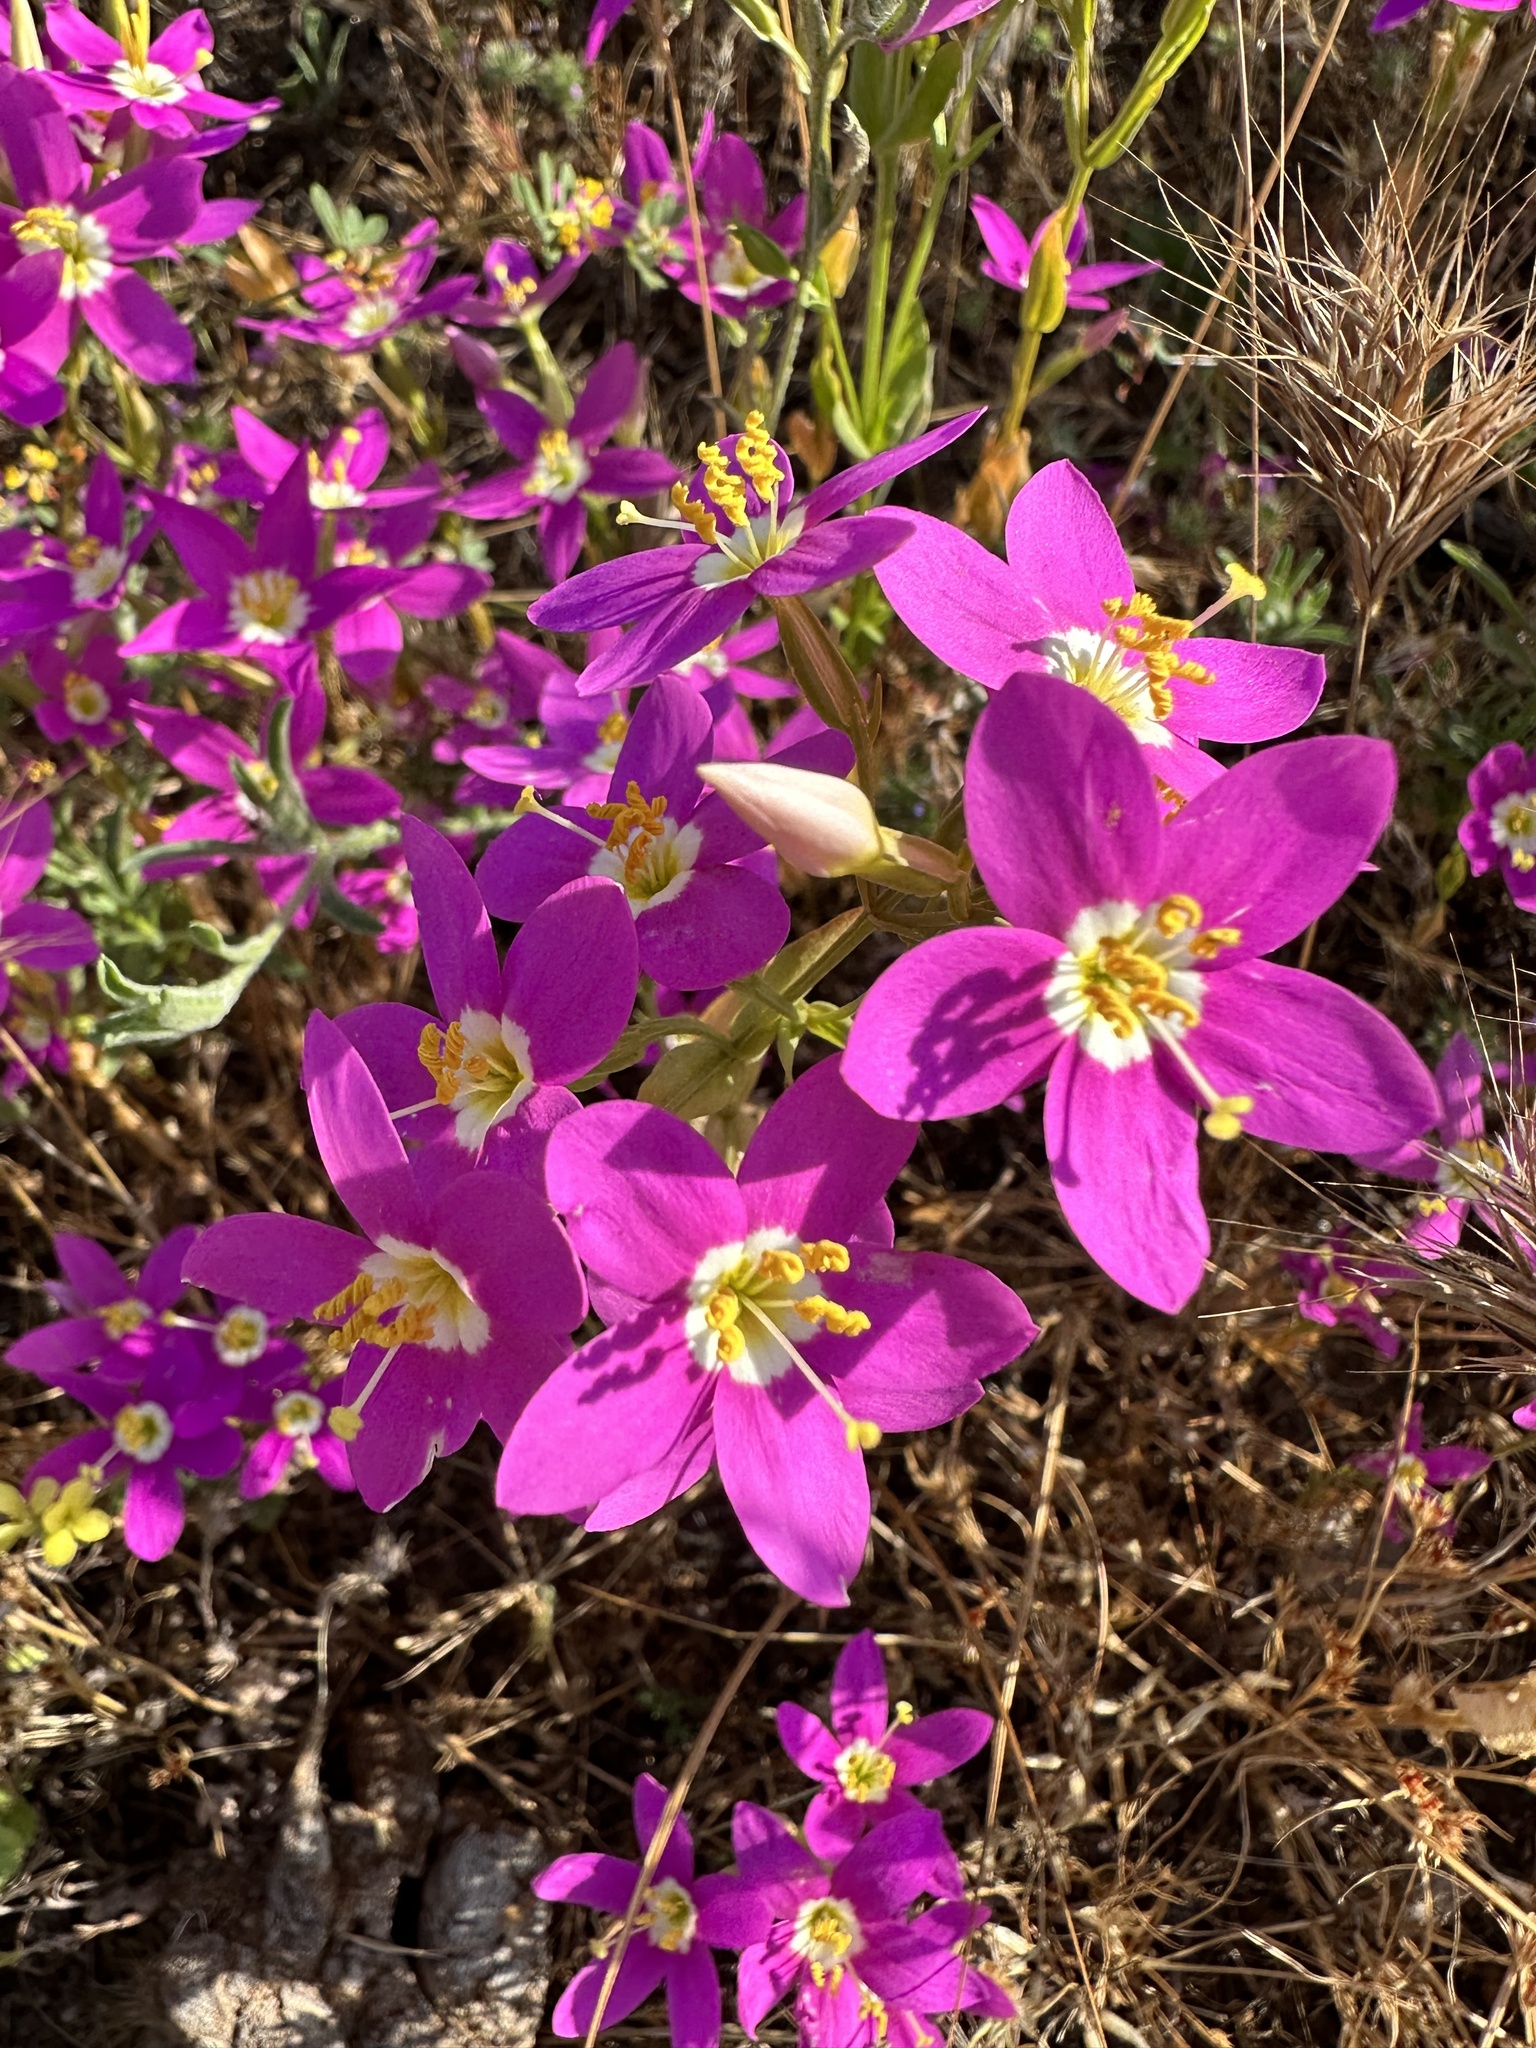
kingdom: Plantae
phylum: Tracheophyta
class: Magnoliopsida
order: Gentianales
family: Gentianaceae
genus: Zeltnera
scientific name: Zeltnera venusta
